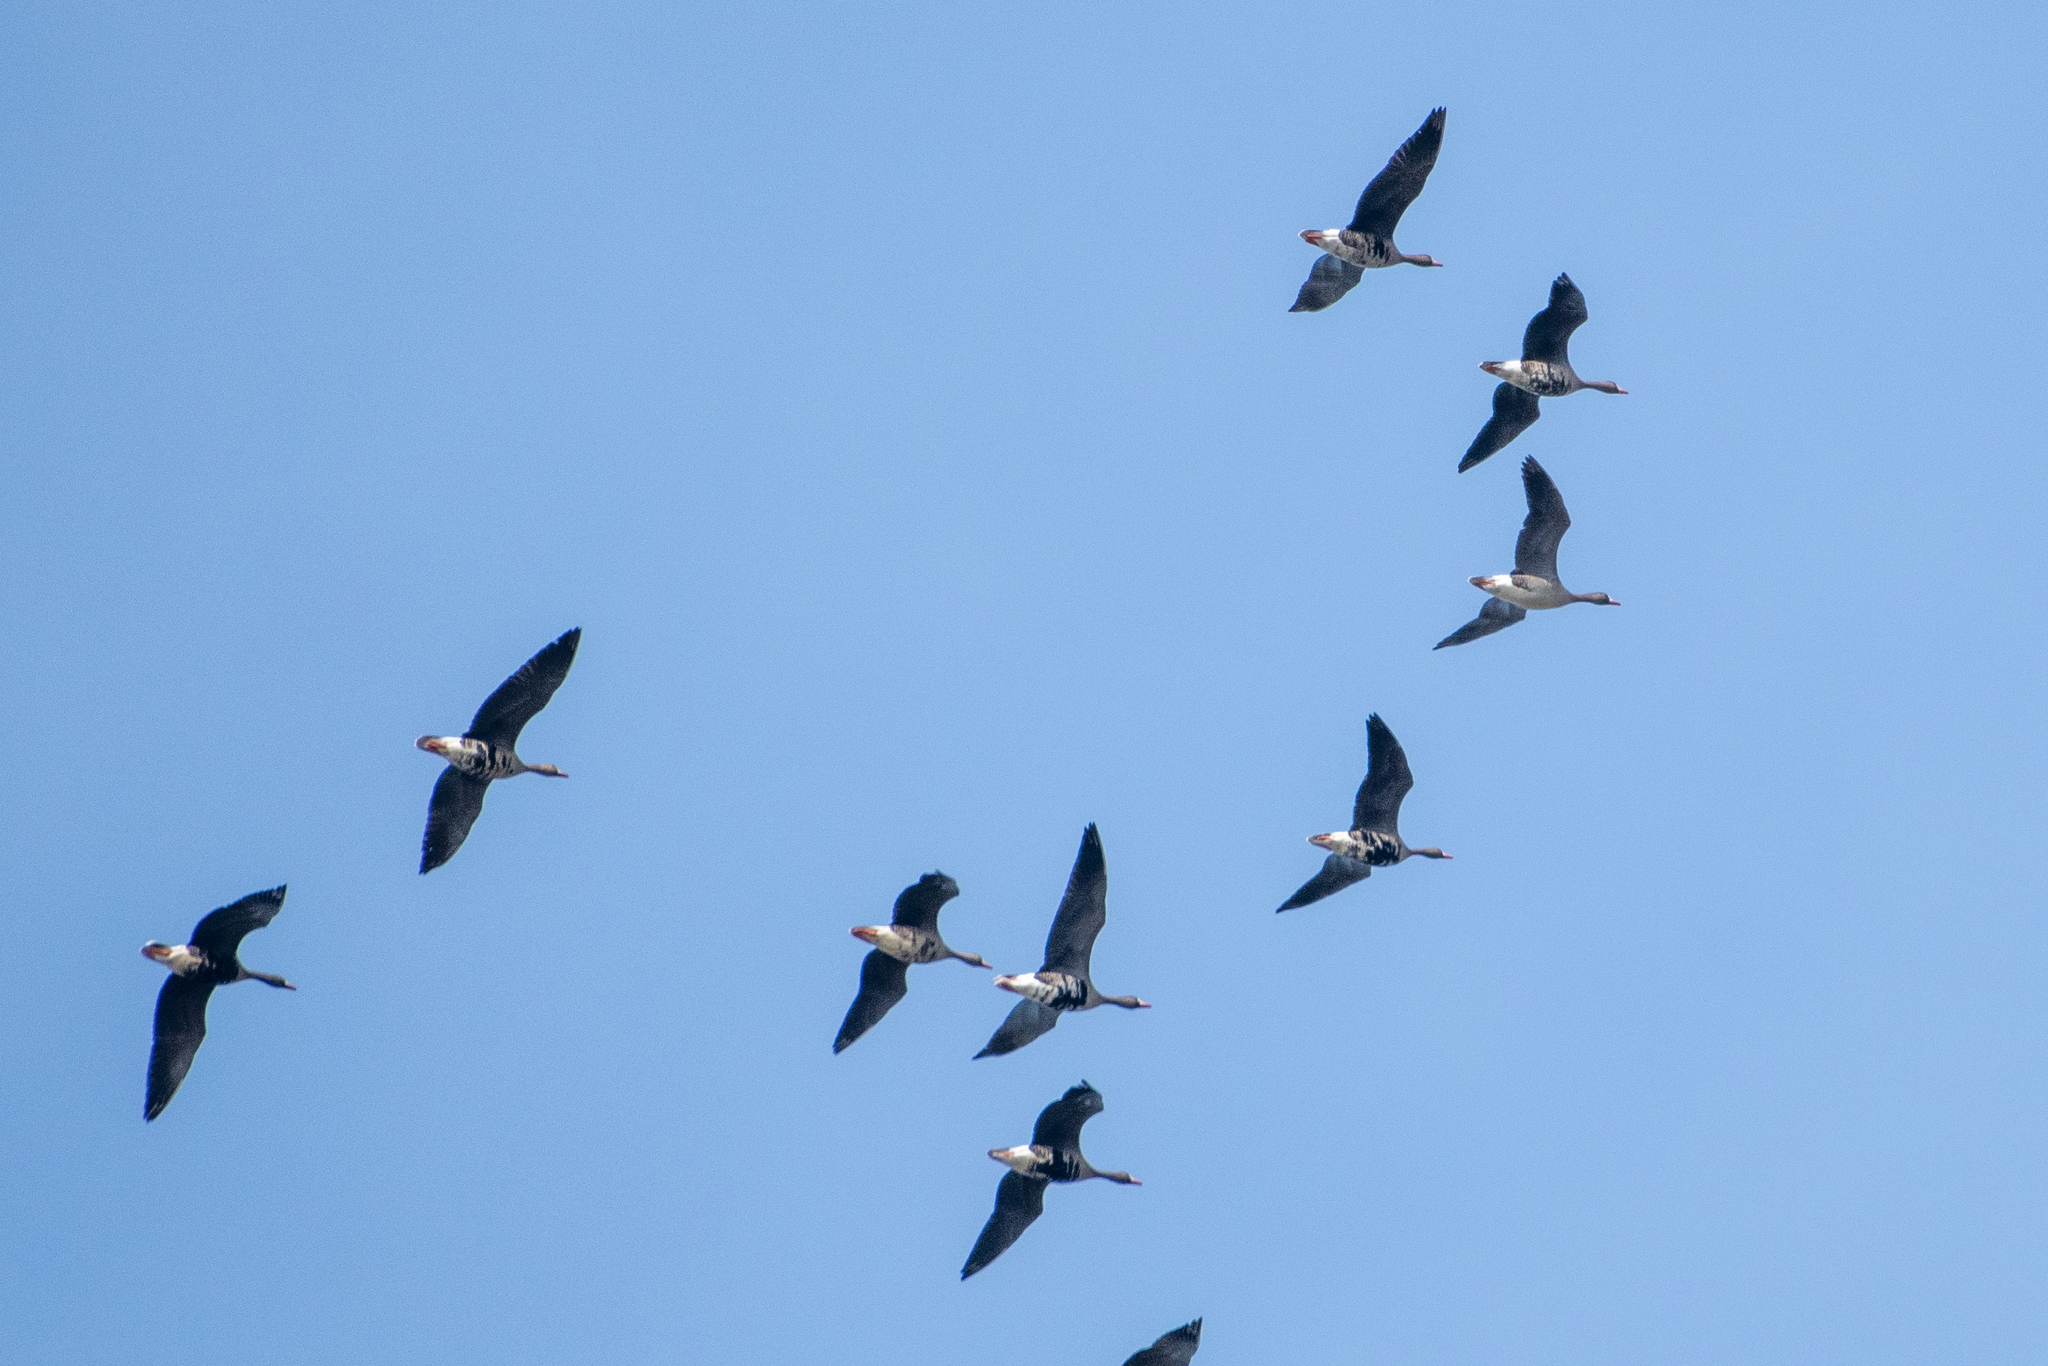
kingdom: Animalia
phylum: Chordata
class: Aves
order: Anseriformes
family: Anatidae
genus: Anser
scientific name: Anser albifrons
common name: Greater white-fronted goose
